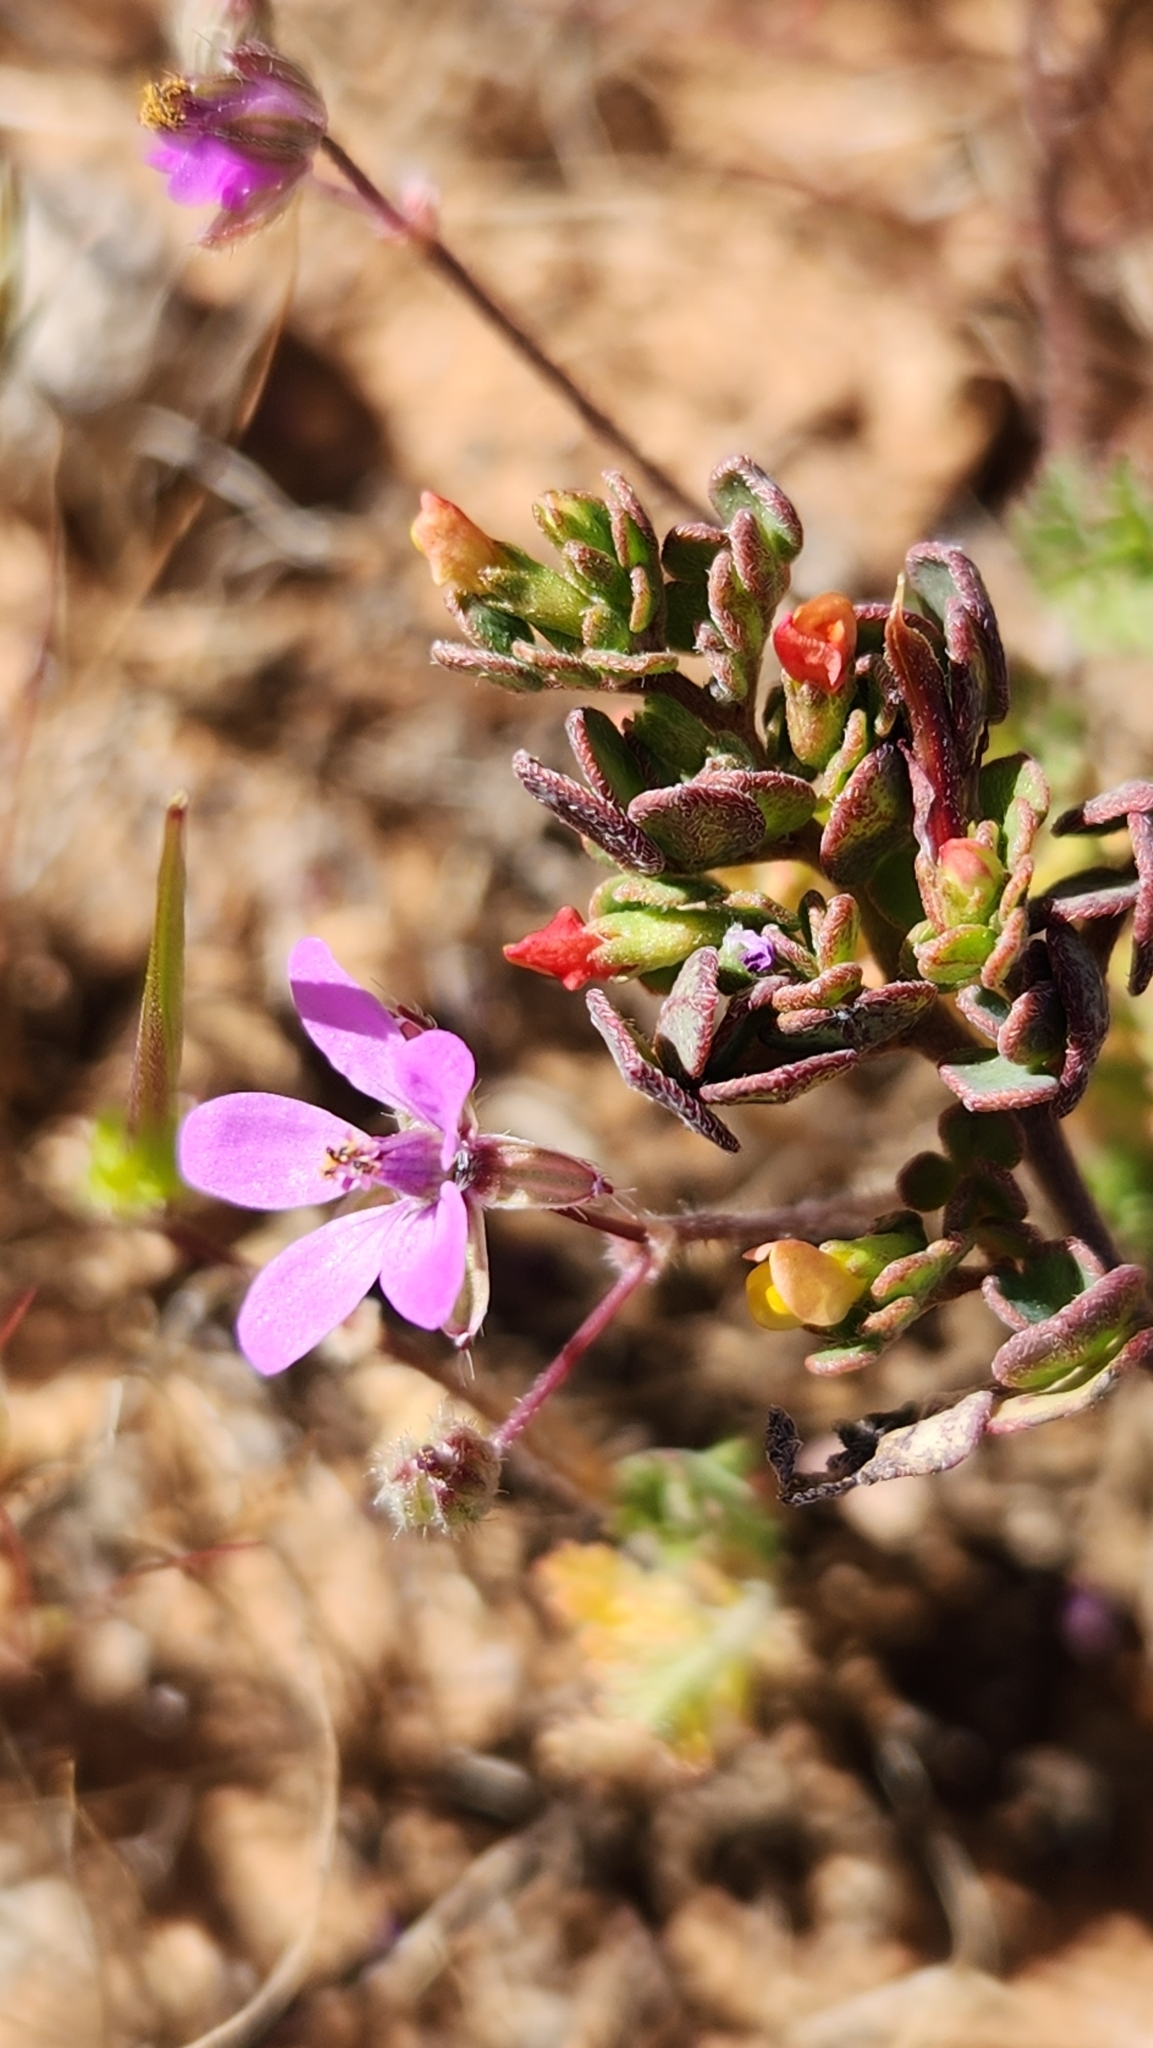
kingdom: Plantae
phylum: Tracheophyta
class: Magnoliopsida
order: Solanales
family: Solanaceae
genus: Lycium
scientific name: Lycium brevipes
